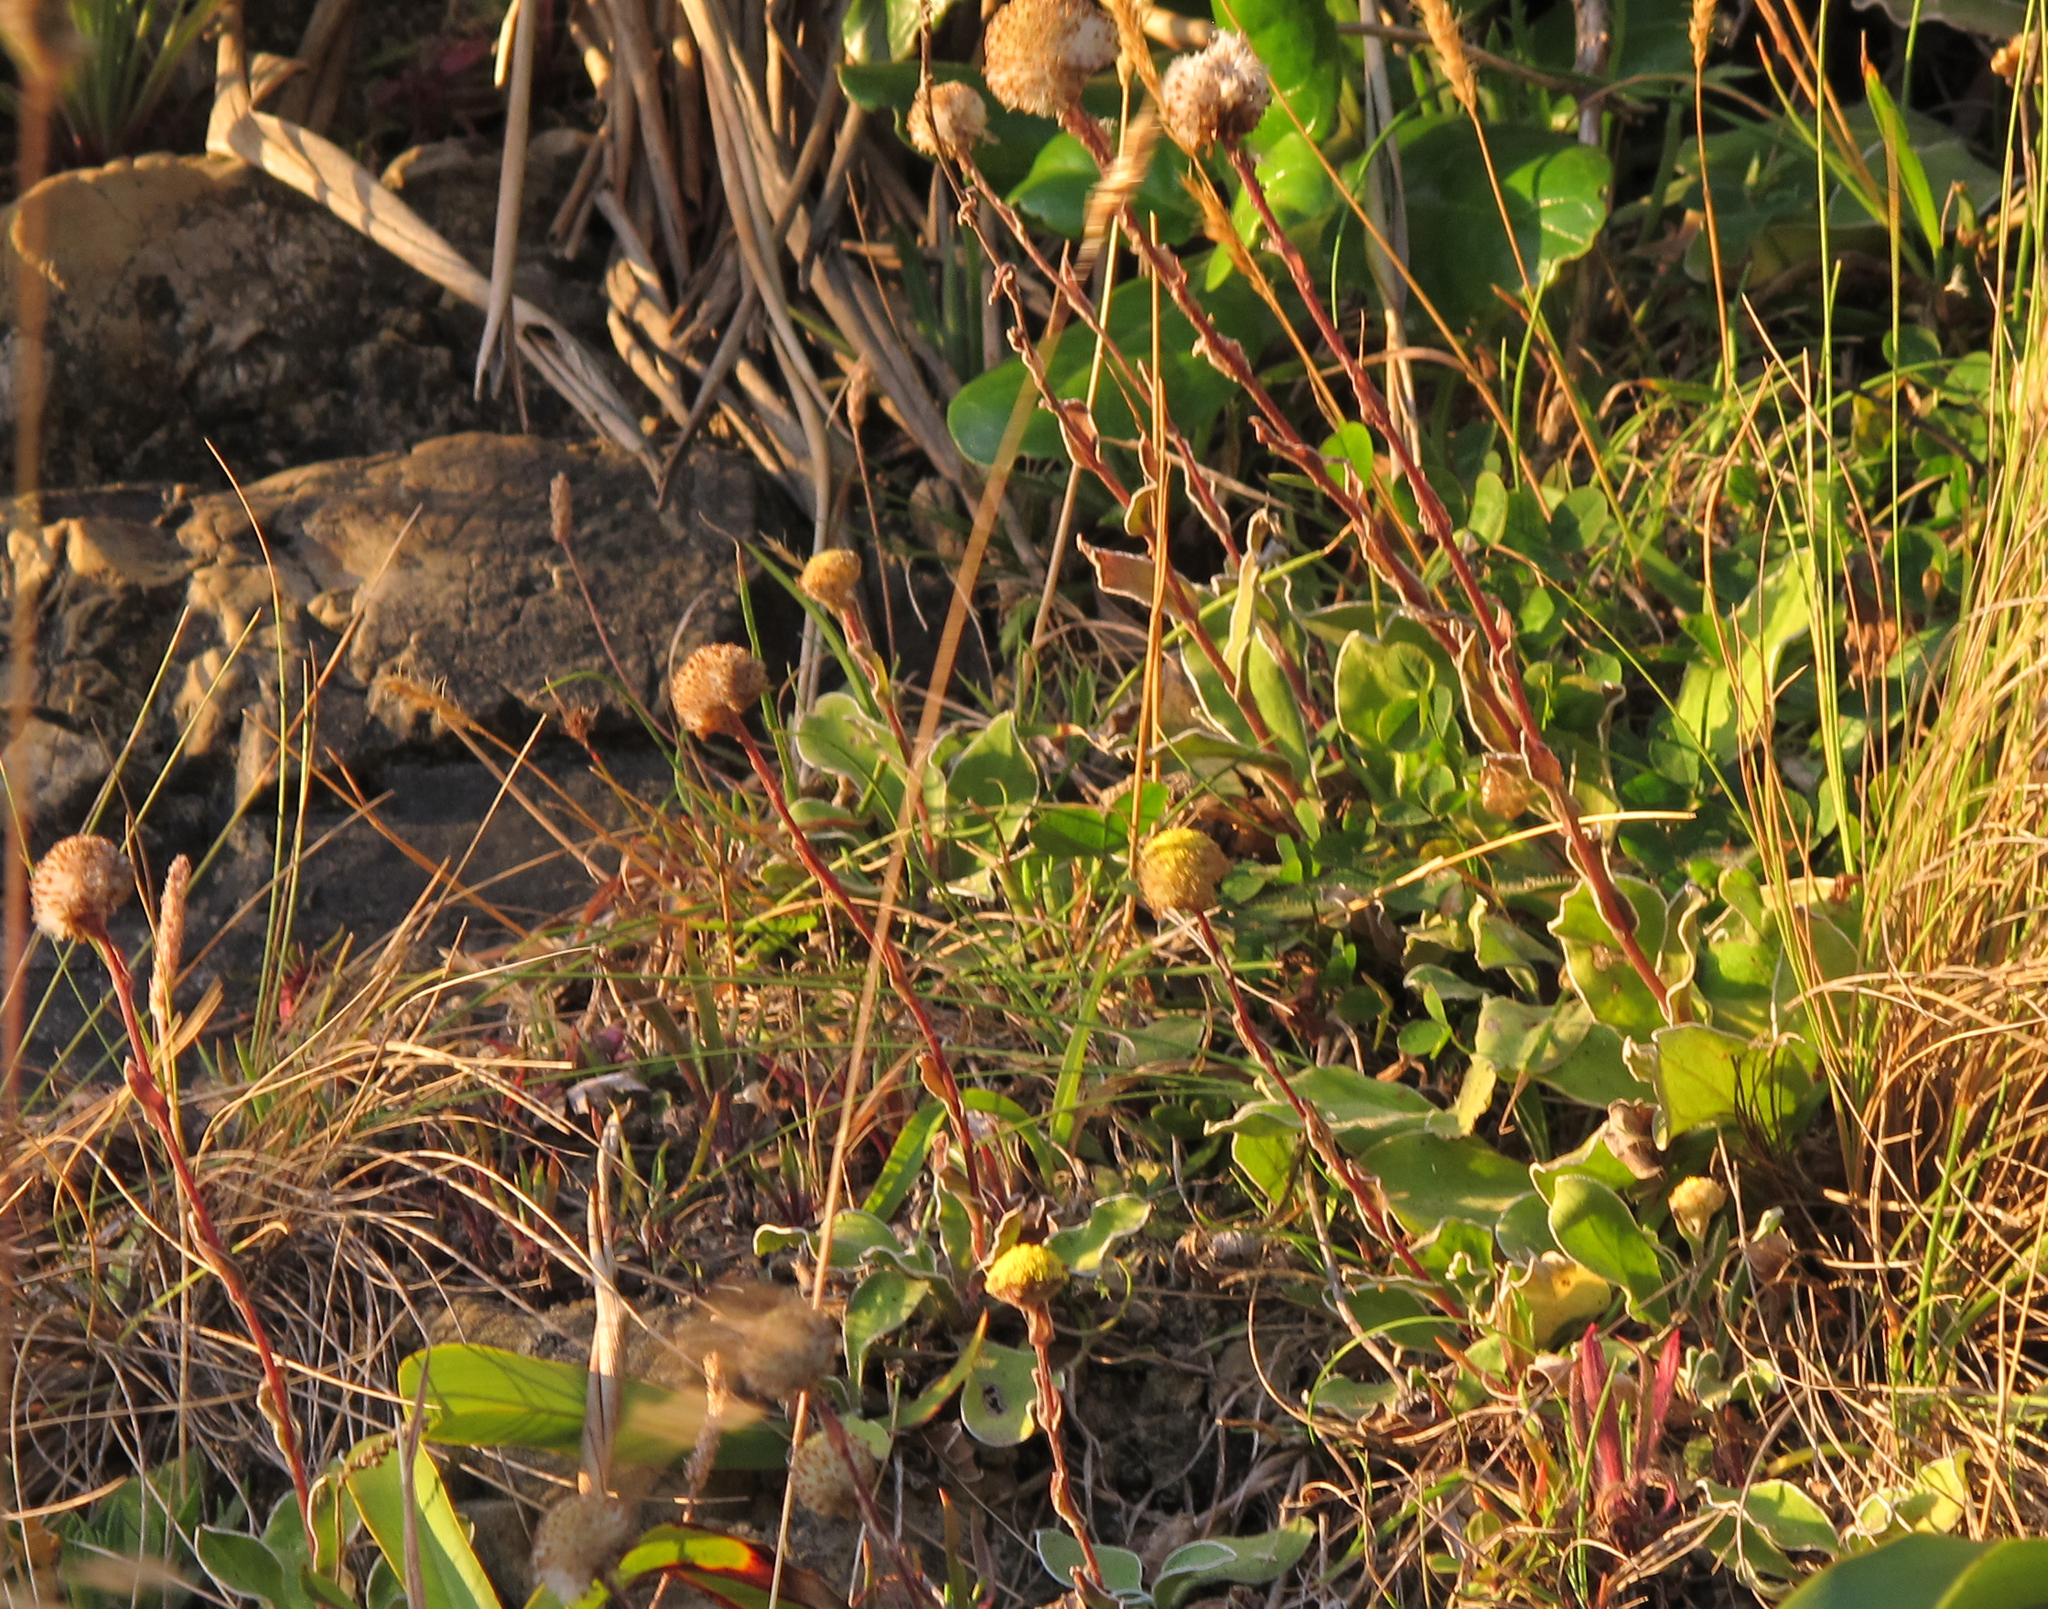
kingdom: Plantae
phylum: Tracheophyta
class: Magnoliopsida
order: Asterales
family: Asteraceae
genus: Craspedia
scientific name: Craspedia uniflora
